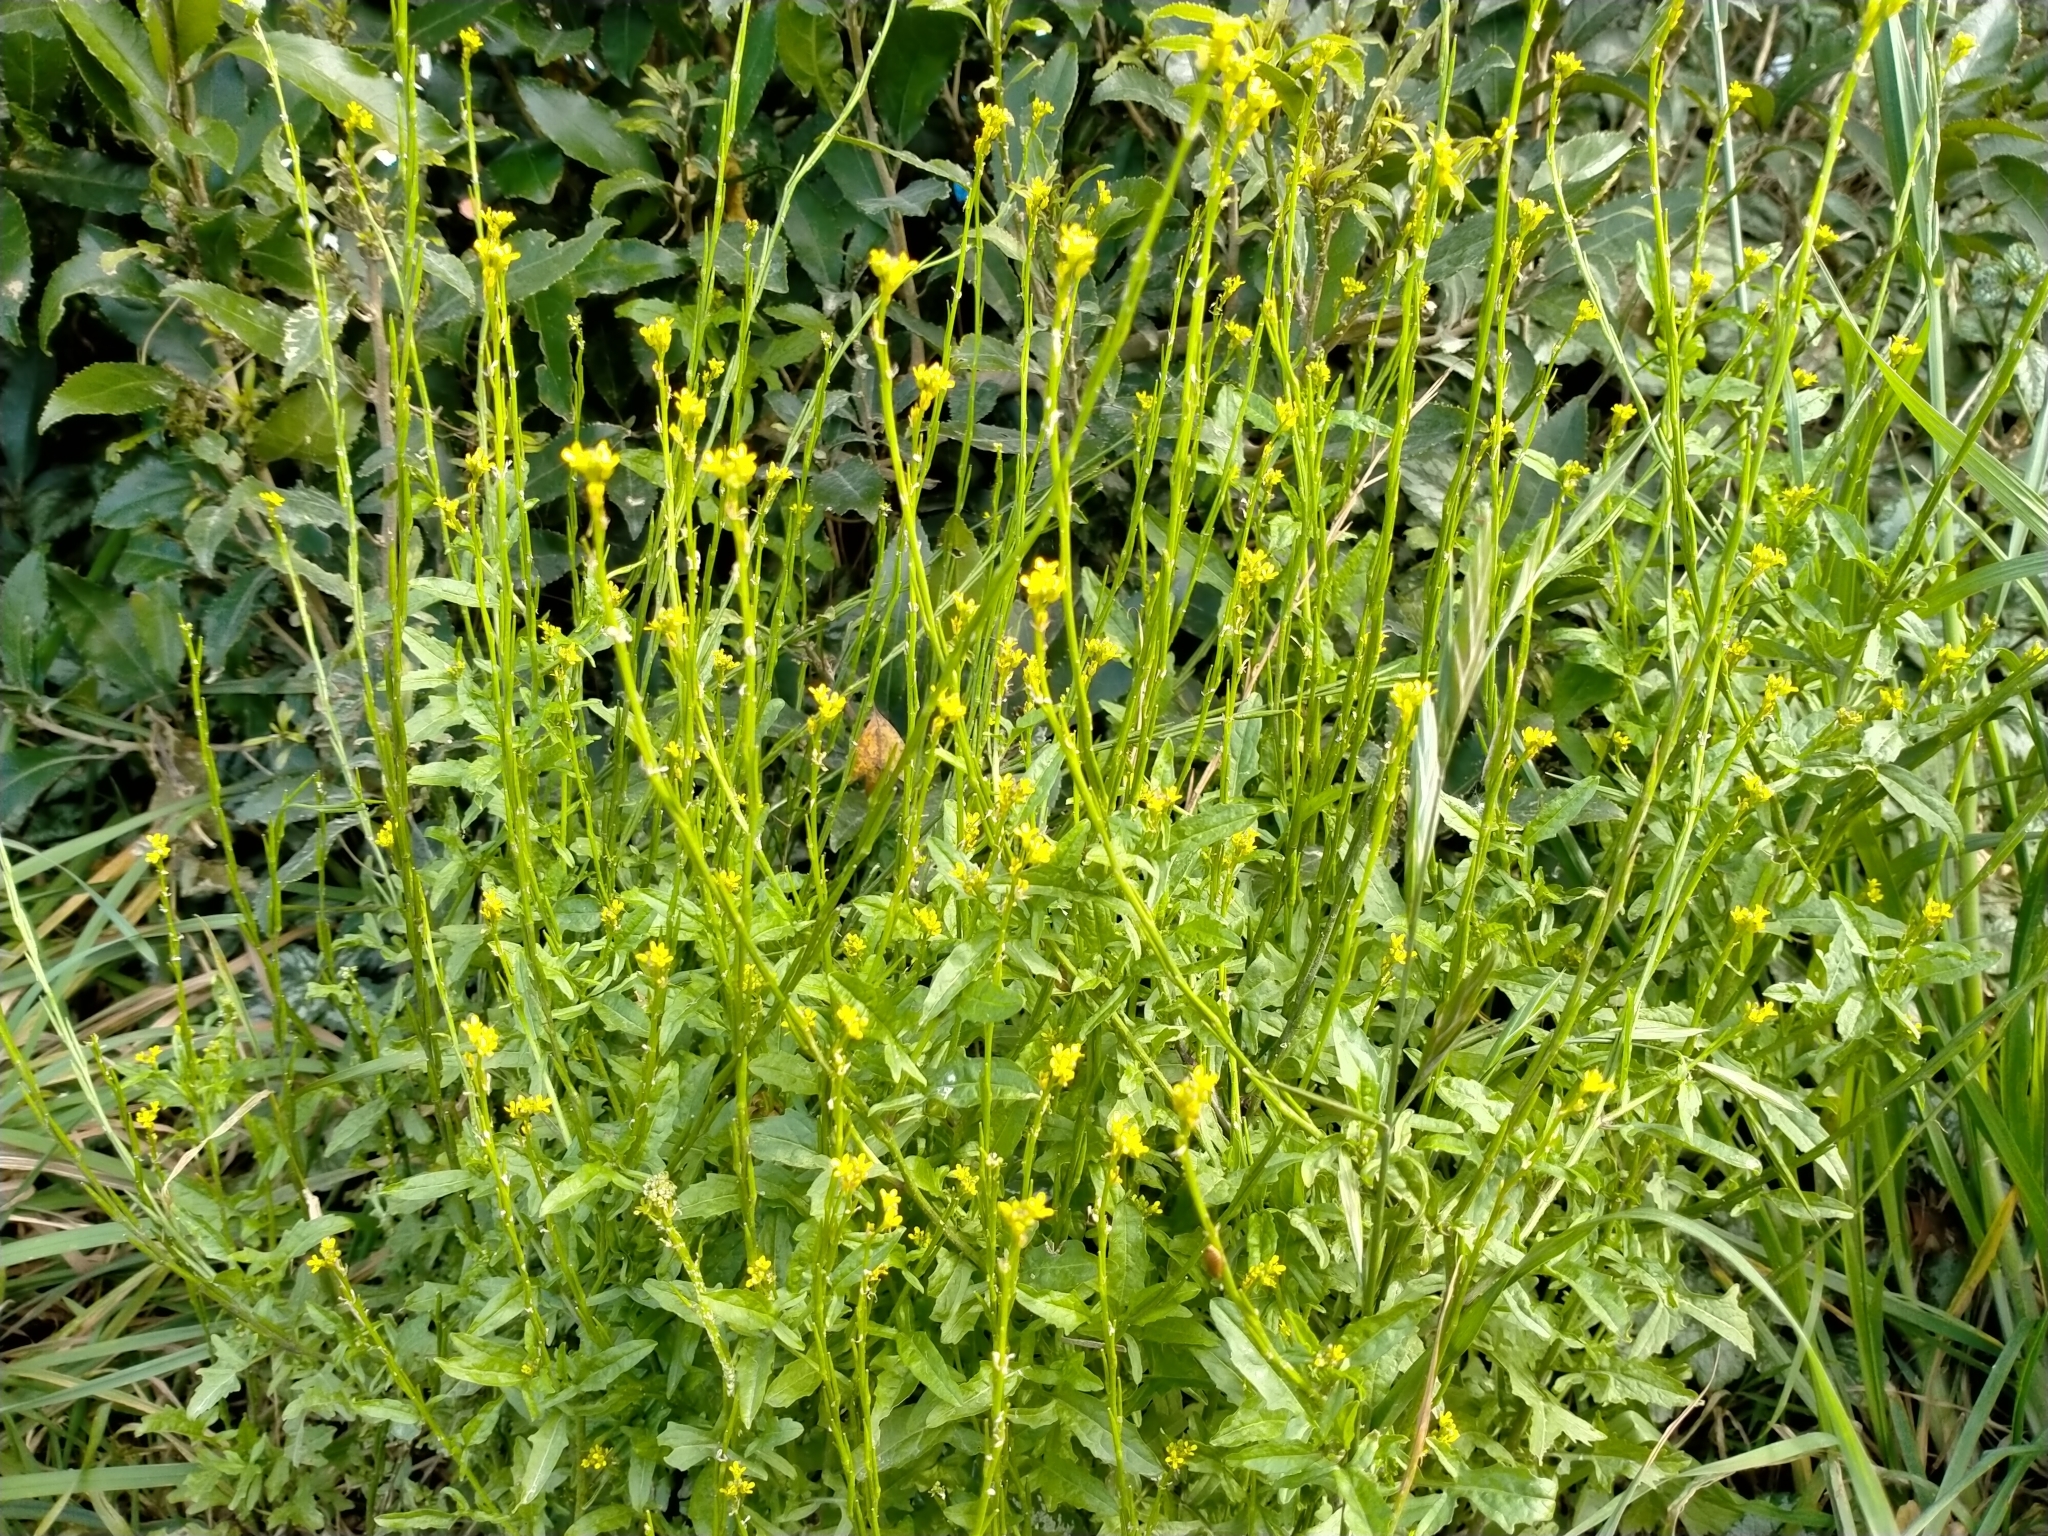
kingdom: Plantae
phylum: Tracheophyta
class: Magnoliopsida
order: Brassicales
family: Brassicaceae
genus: Sisymbrium
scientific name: Sisymbrium officinale
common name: Hedge mustard
